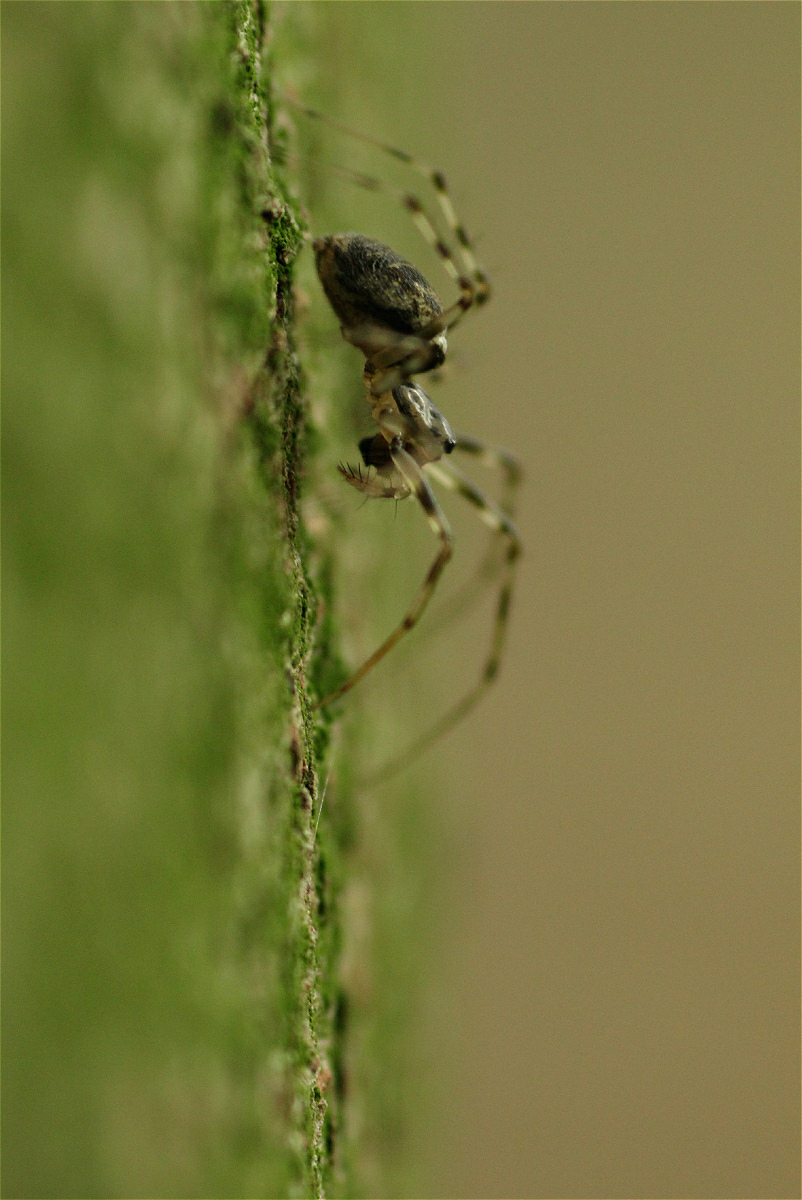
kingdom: Animalia
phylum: Arthropoda
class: Arachnida
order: Araneae
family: Linyphiidae
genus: Drapetisca
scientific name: Drapetisca socialis
